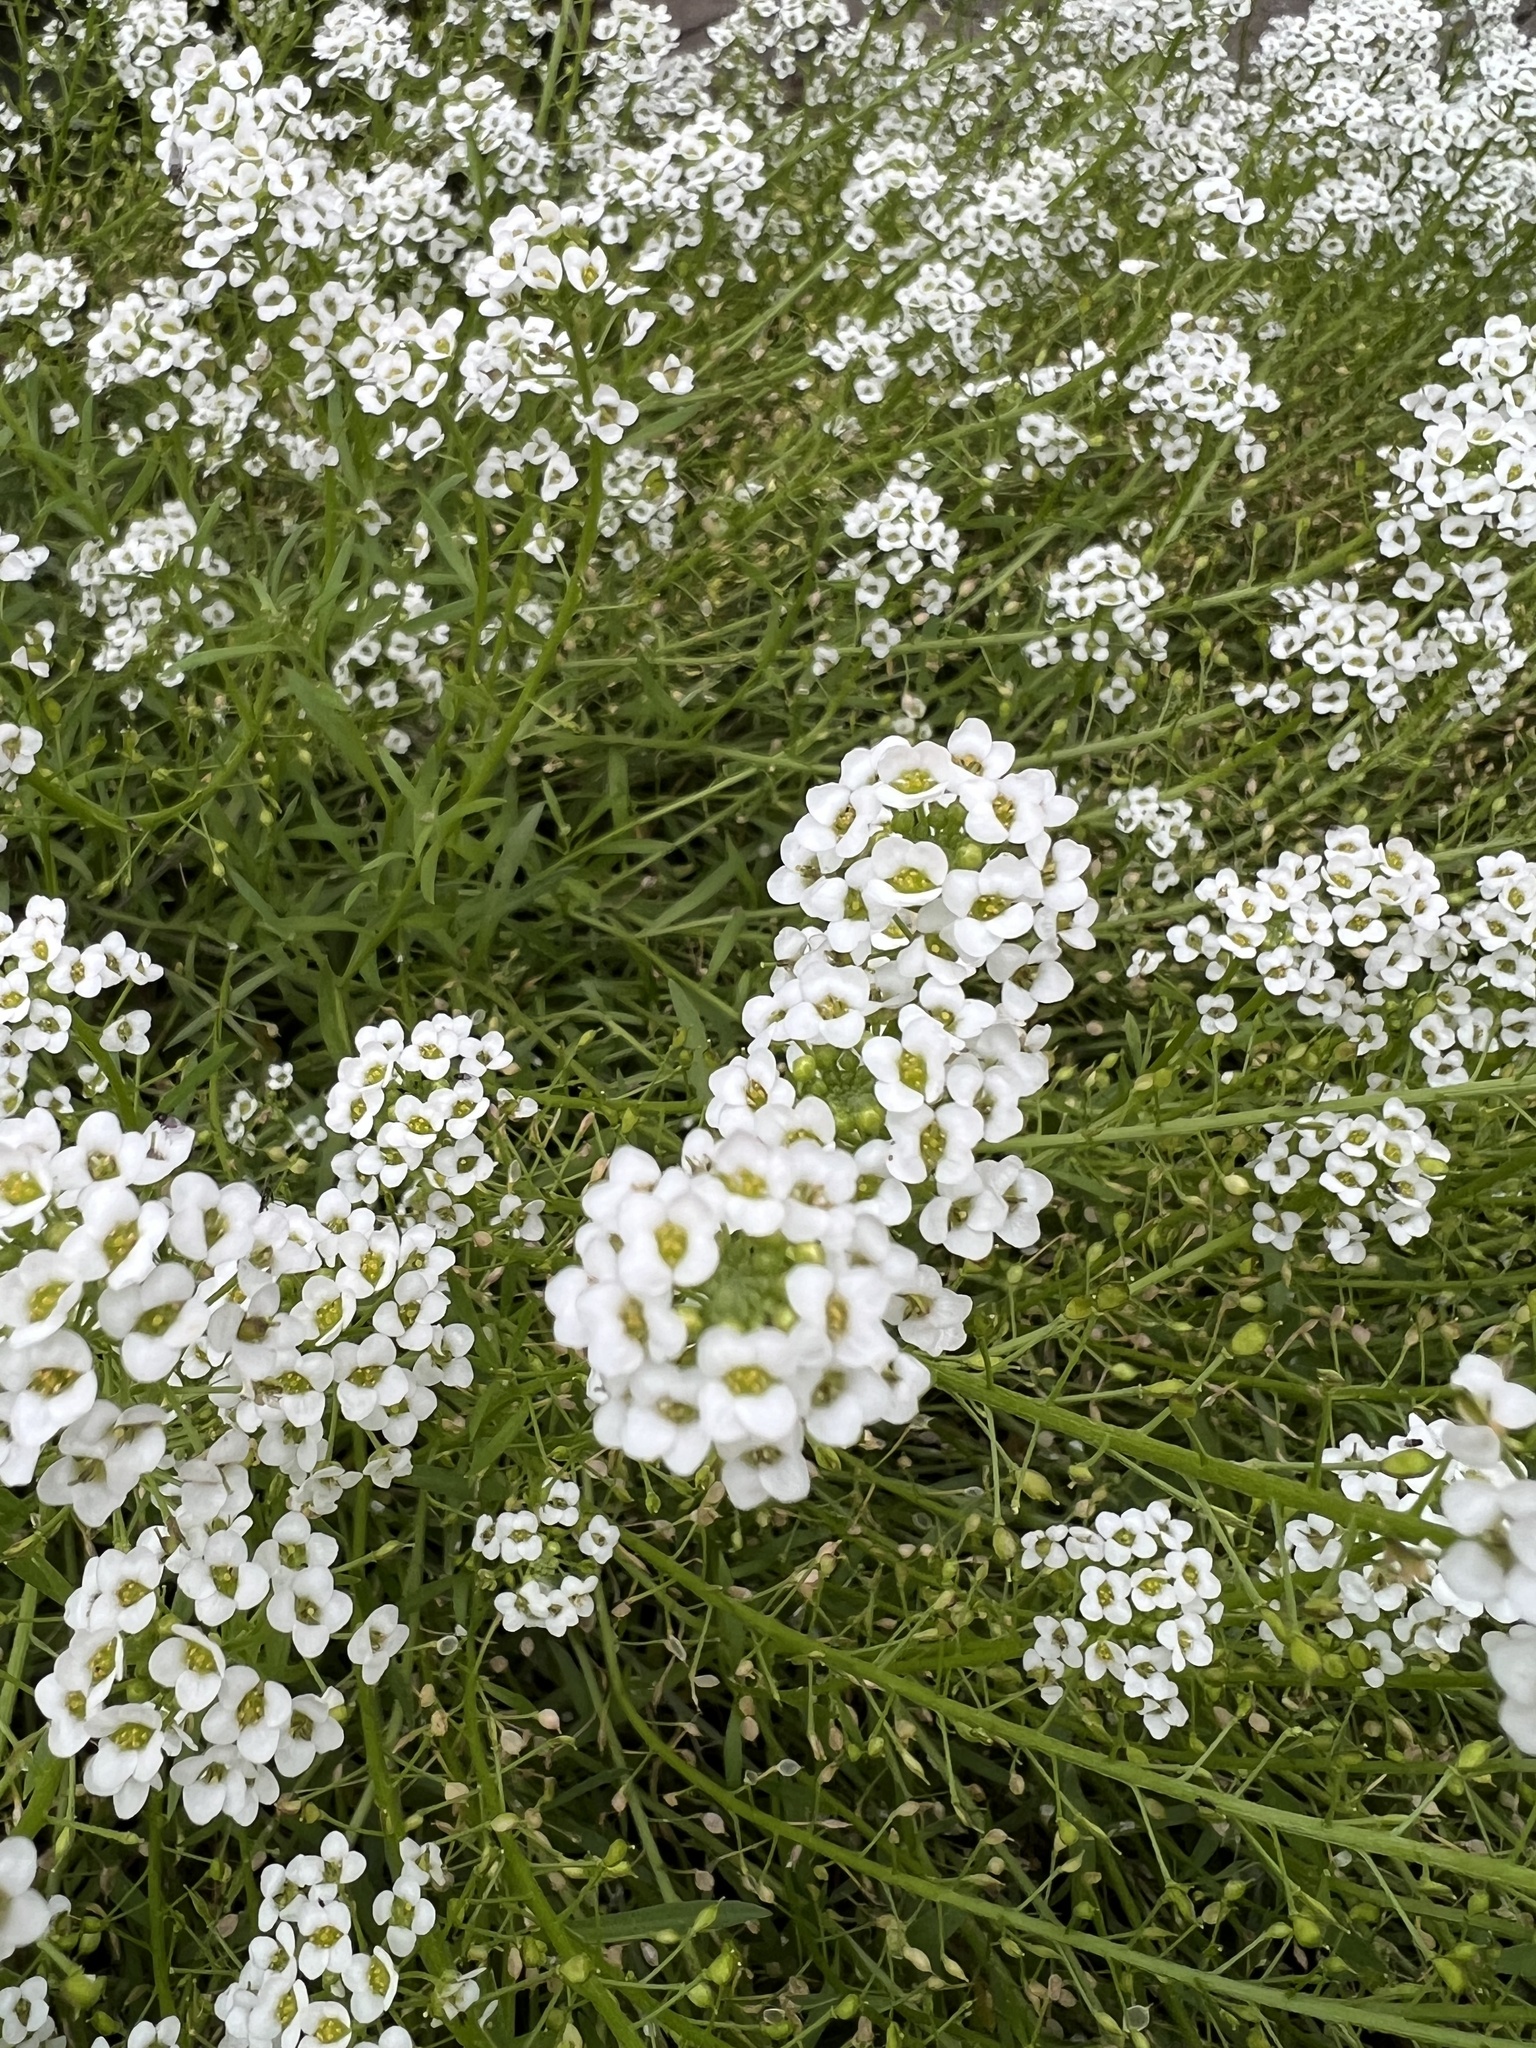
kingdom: Plantae
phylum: Tracheophyta
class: Magnoliopsida
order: Brassicales
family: Brassicaceae
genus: Lobularia
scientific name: Lobularia maritima
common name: Sweet alison
